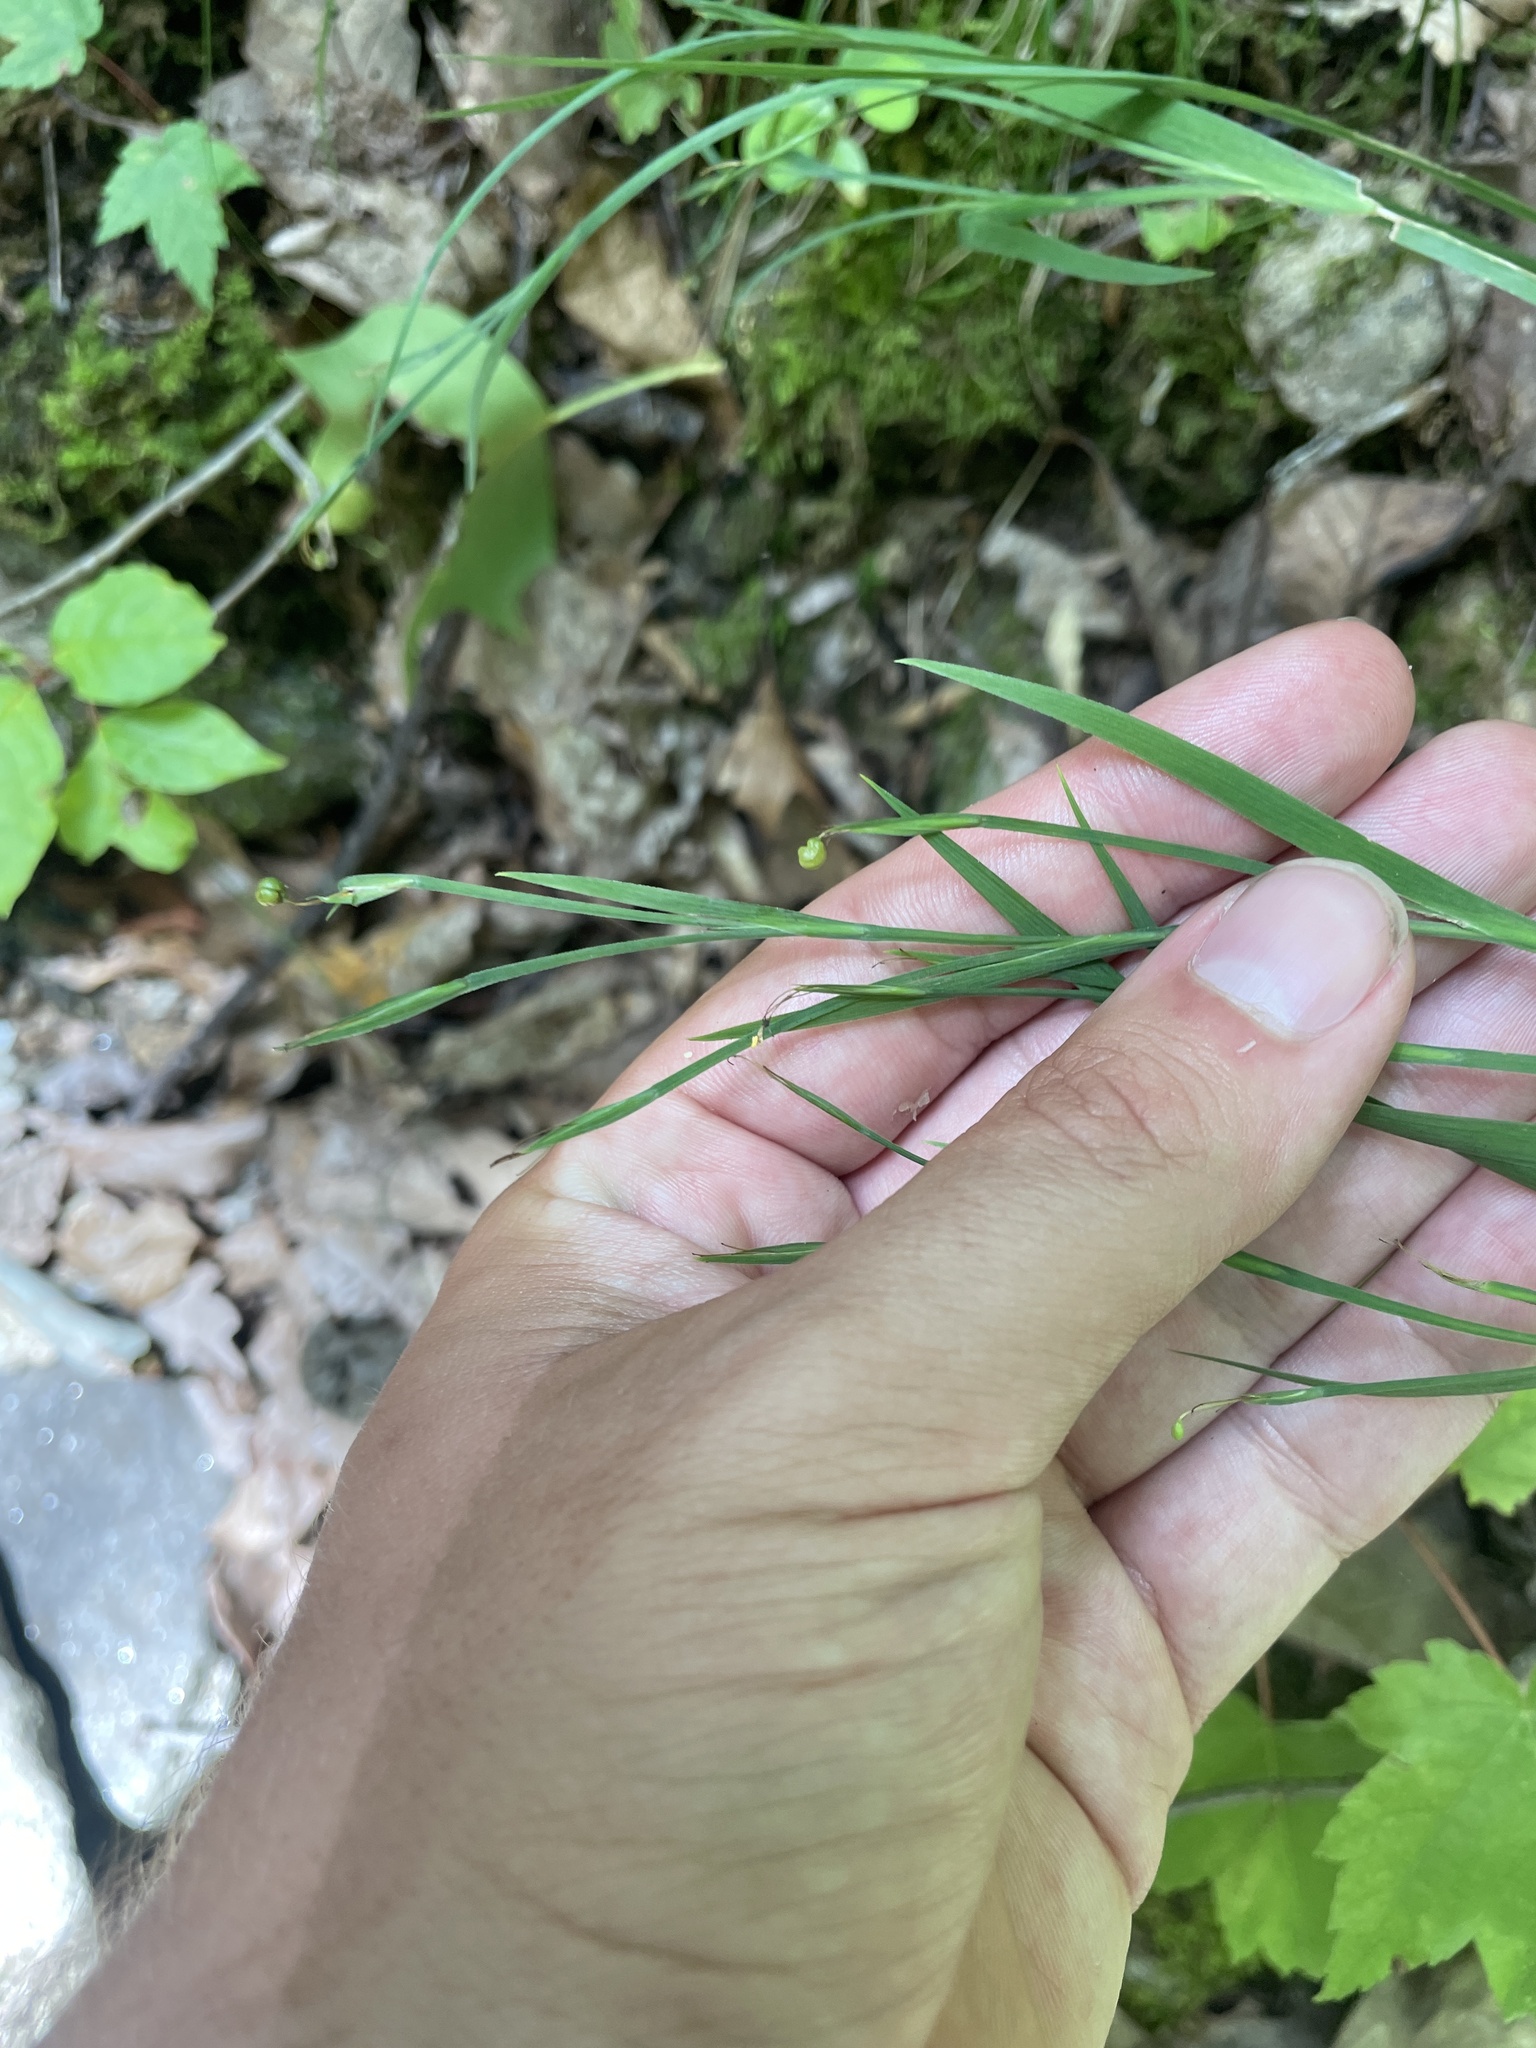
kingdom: Plantae
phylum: Tracheophyta
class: Liliopsida
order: Asparagales
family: Iridaceae
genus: Sisyrinchium
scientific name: Sisyrinchium dichotomum
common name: White irisette
